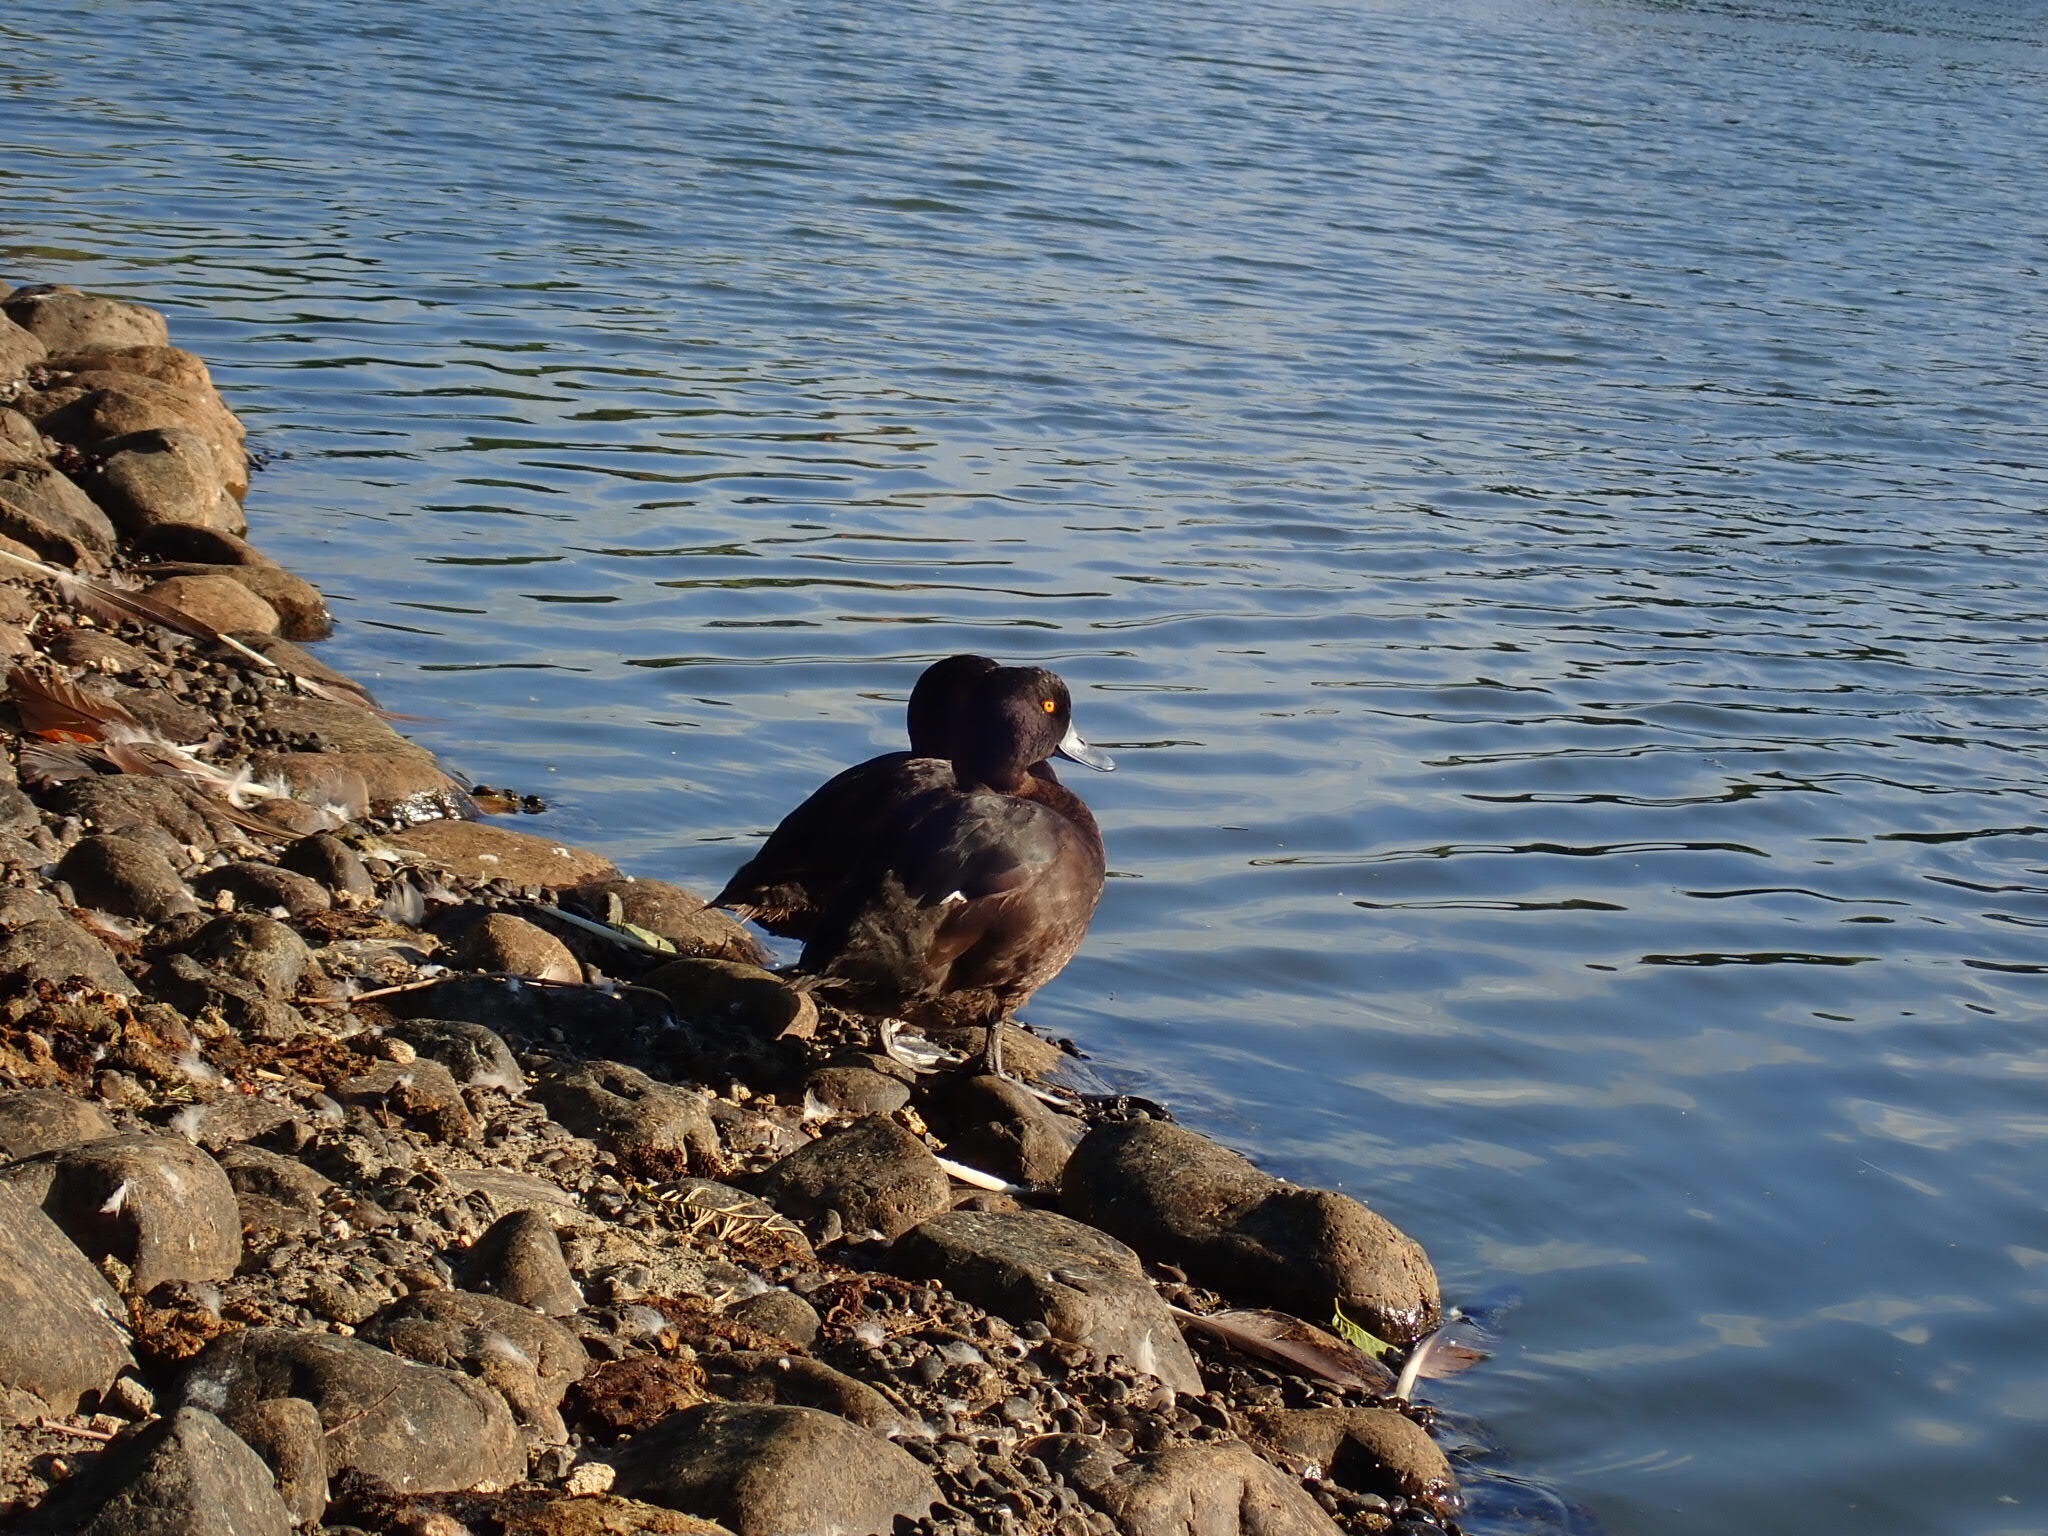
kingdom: Animalia
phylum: Chordata
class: Aves
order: Anseriformes
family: Anatidae
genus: Aythya
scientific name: Aythya novaeseelandiae
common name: New zealand scaup
